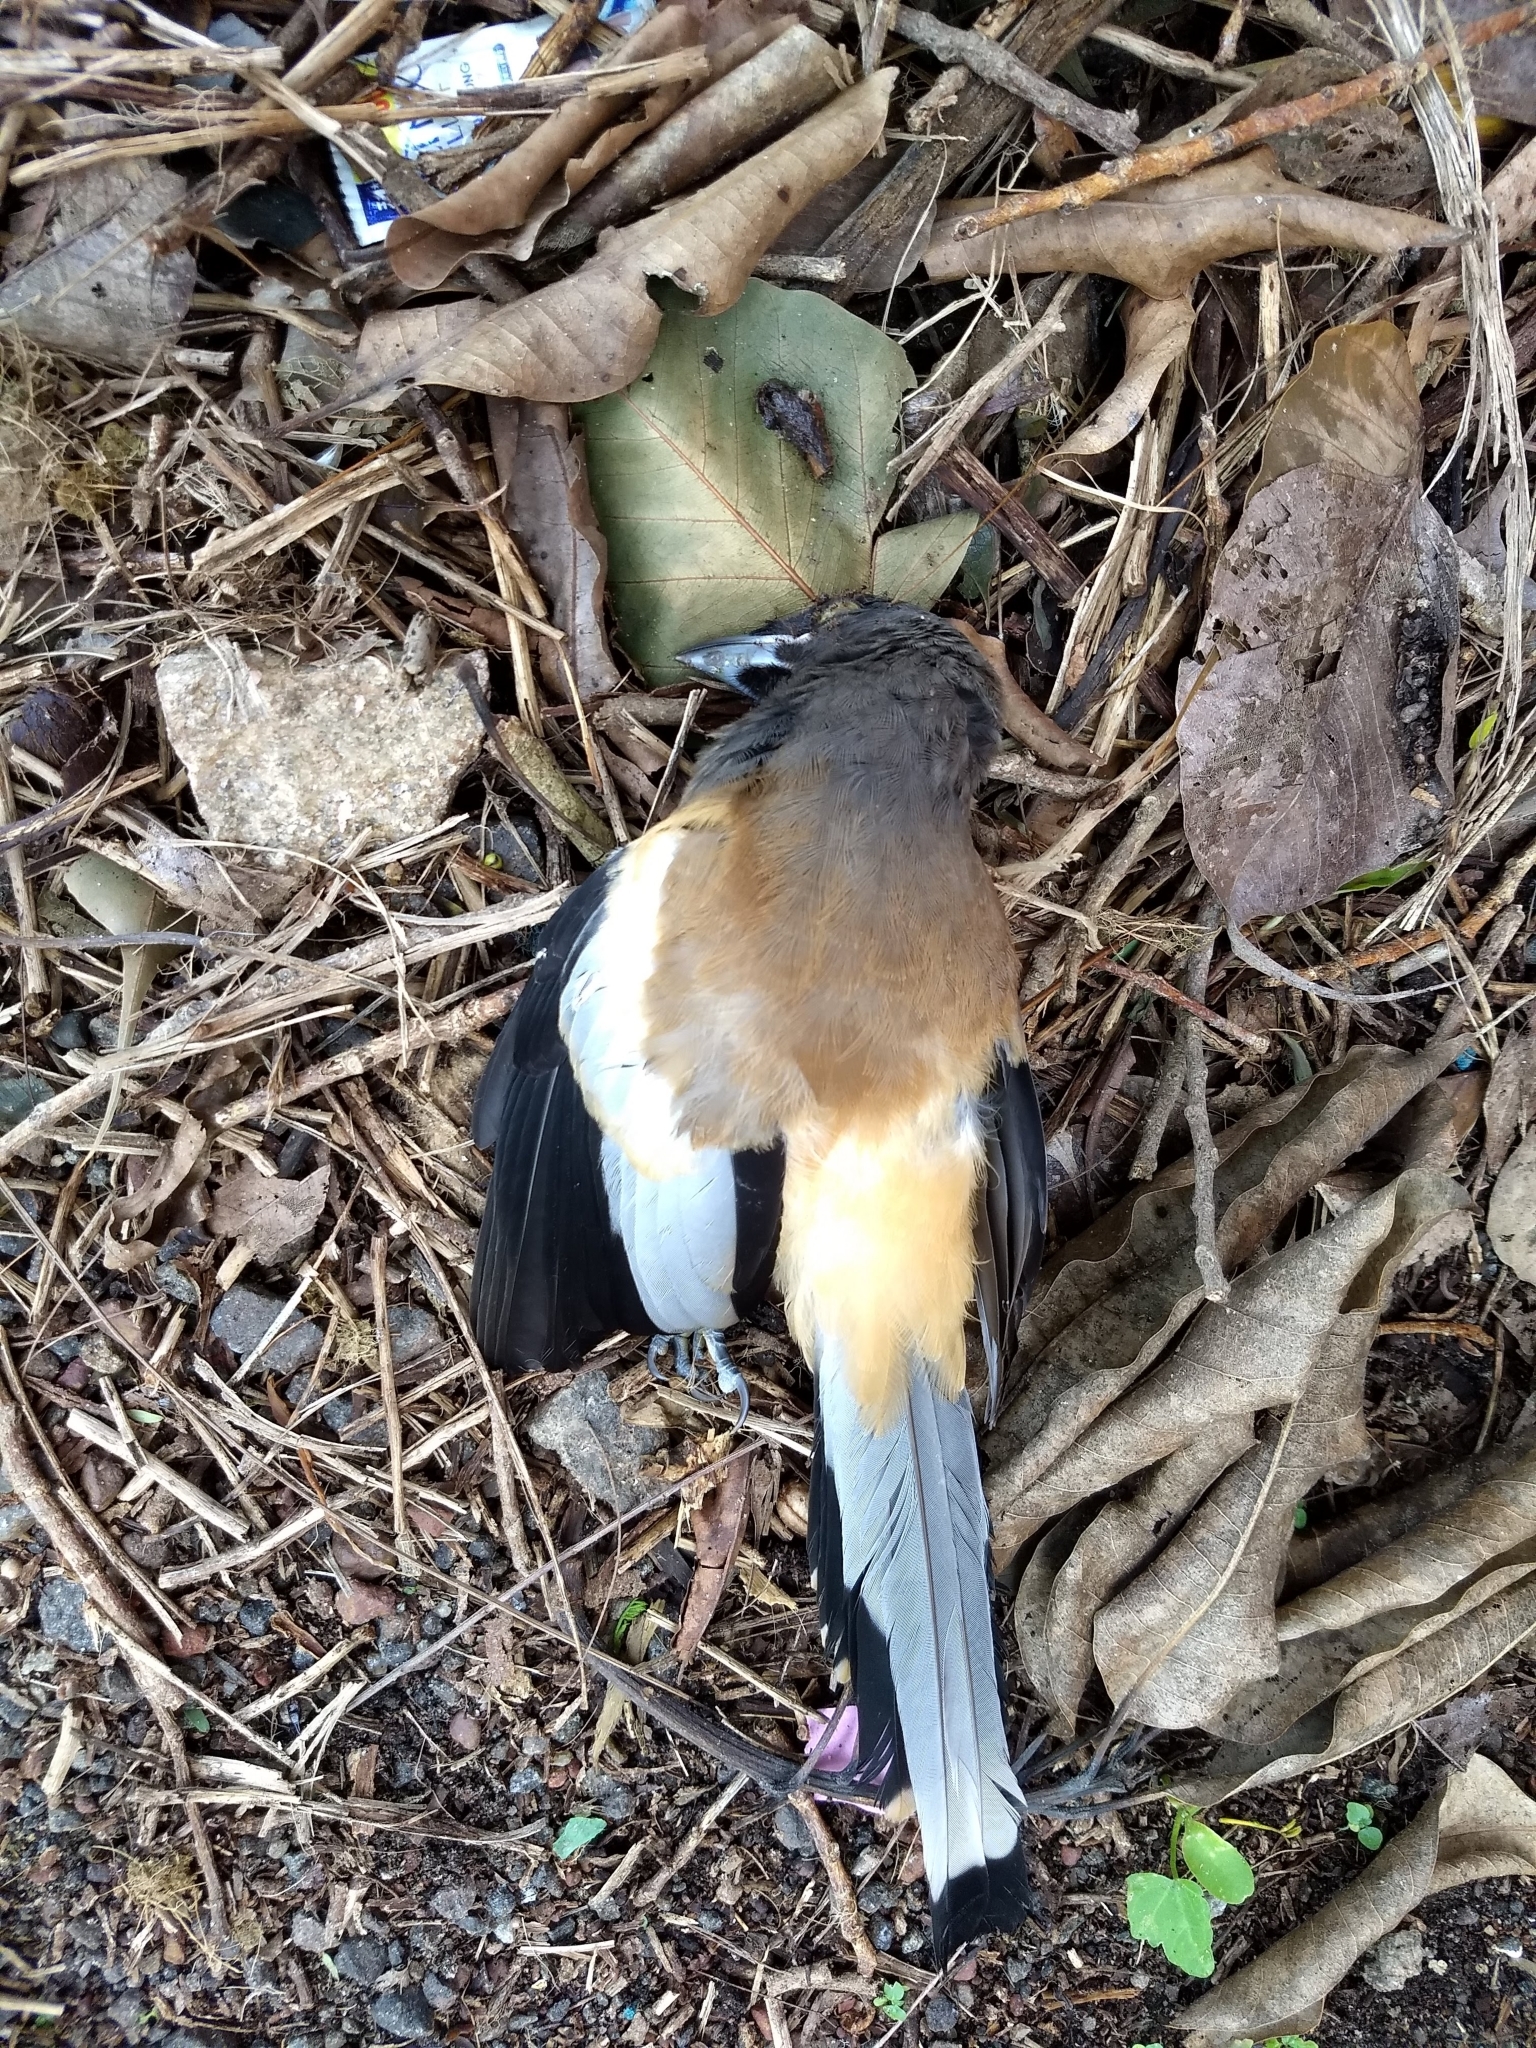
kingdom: Animalia
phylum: Chordata
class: Aves
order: Passeriformes
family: Corvidae
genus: Dendrocitta
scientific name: Dendrocitta vagabunda
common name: Rufous treepie
